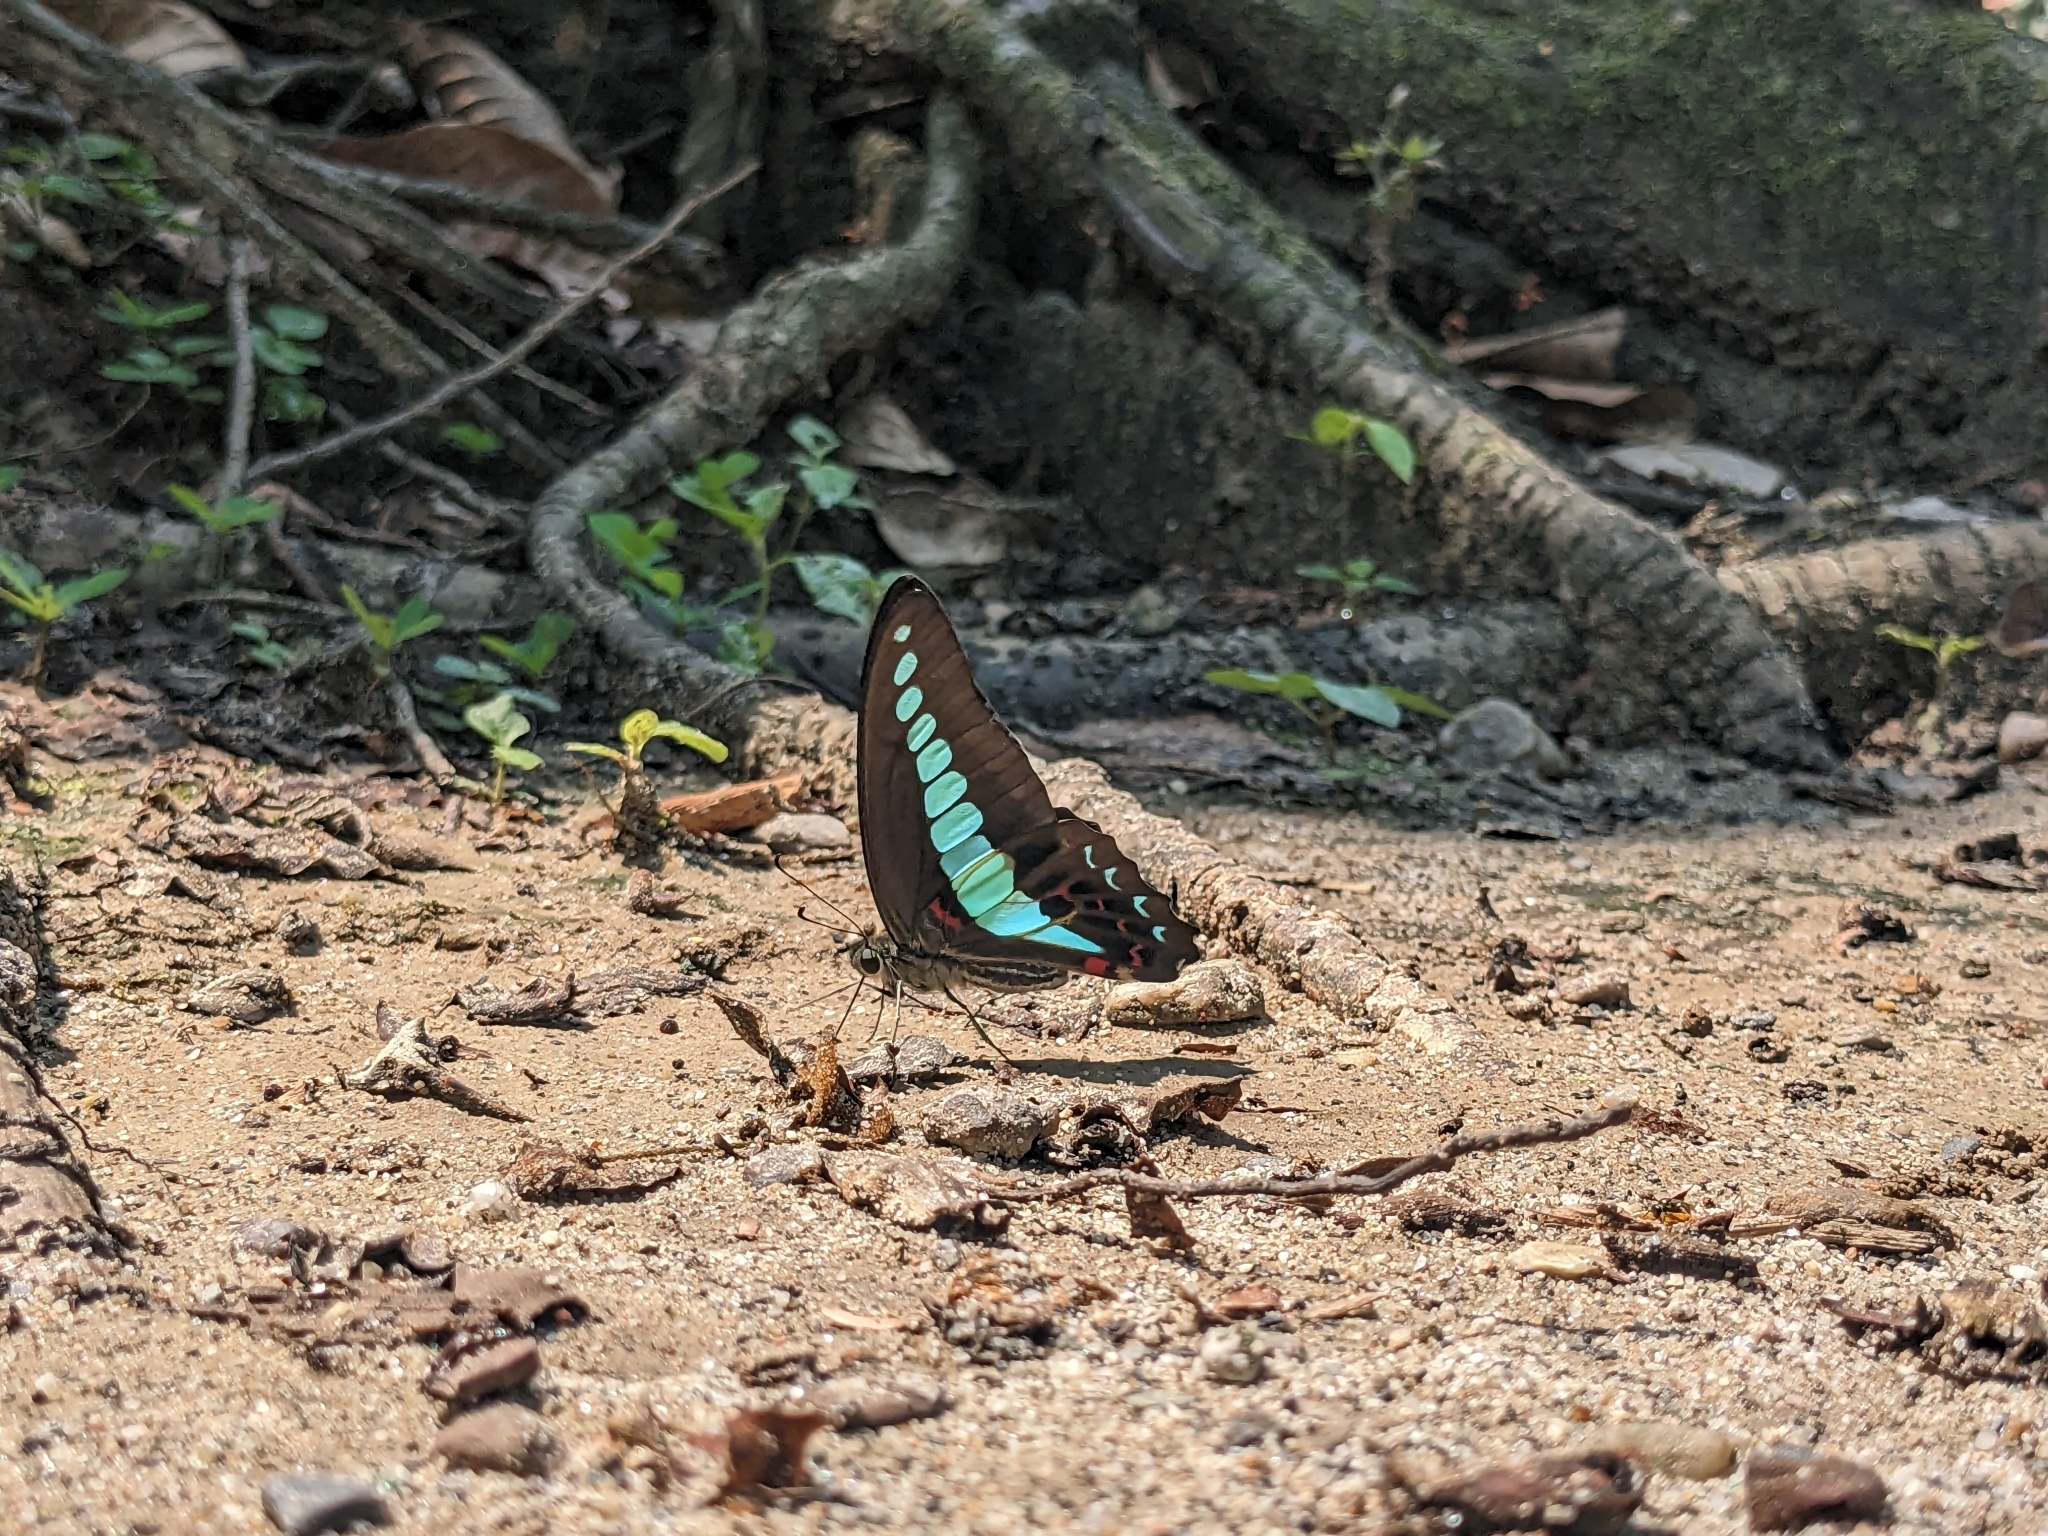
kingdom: Fungi
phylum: Ascomycota
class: Sordariomycetes
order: Microascales
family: Microascaceae
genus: Graphium
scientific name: Graphium sarpedon
